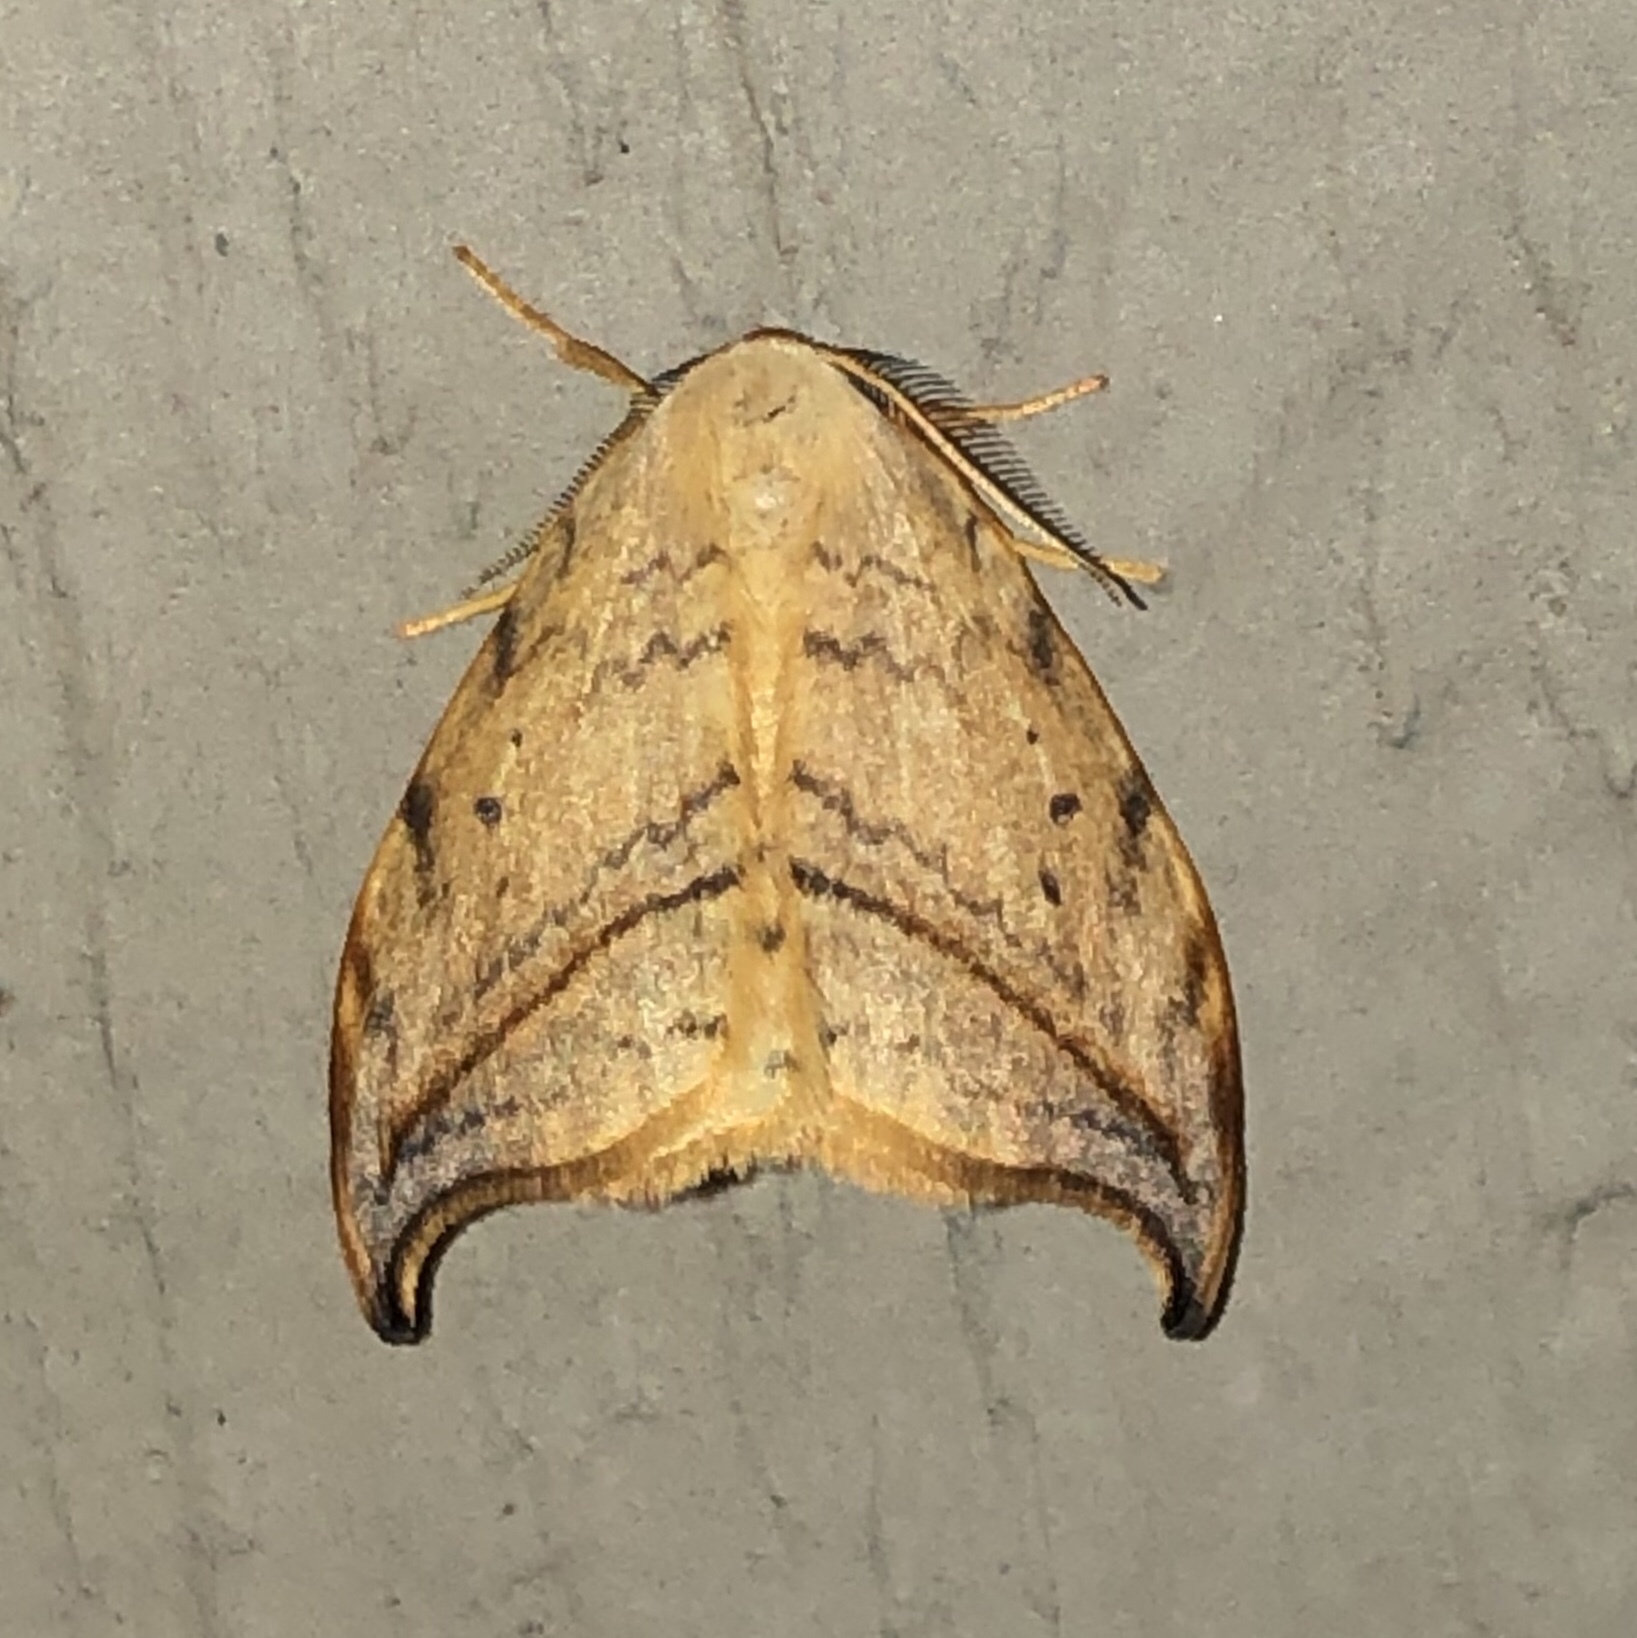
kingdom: Animalia
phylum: Arthropoda
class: Insecta
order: Lepidoptera
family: Drepanidae
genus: Drepana
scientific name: Drepana arcuata
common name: Arched hooktip moth
